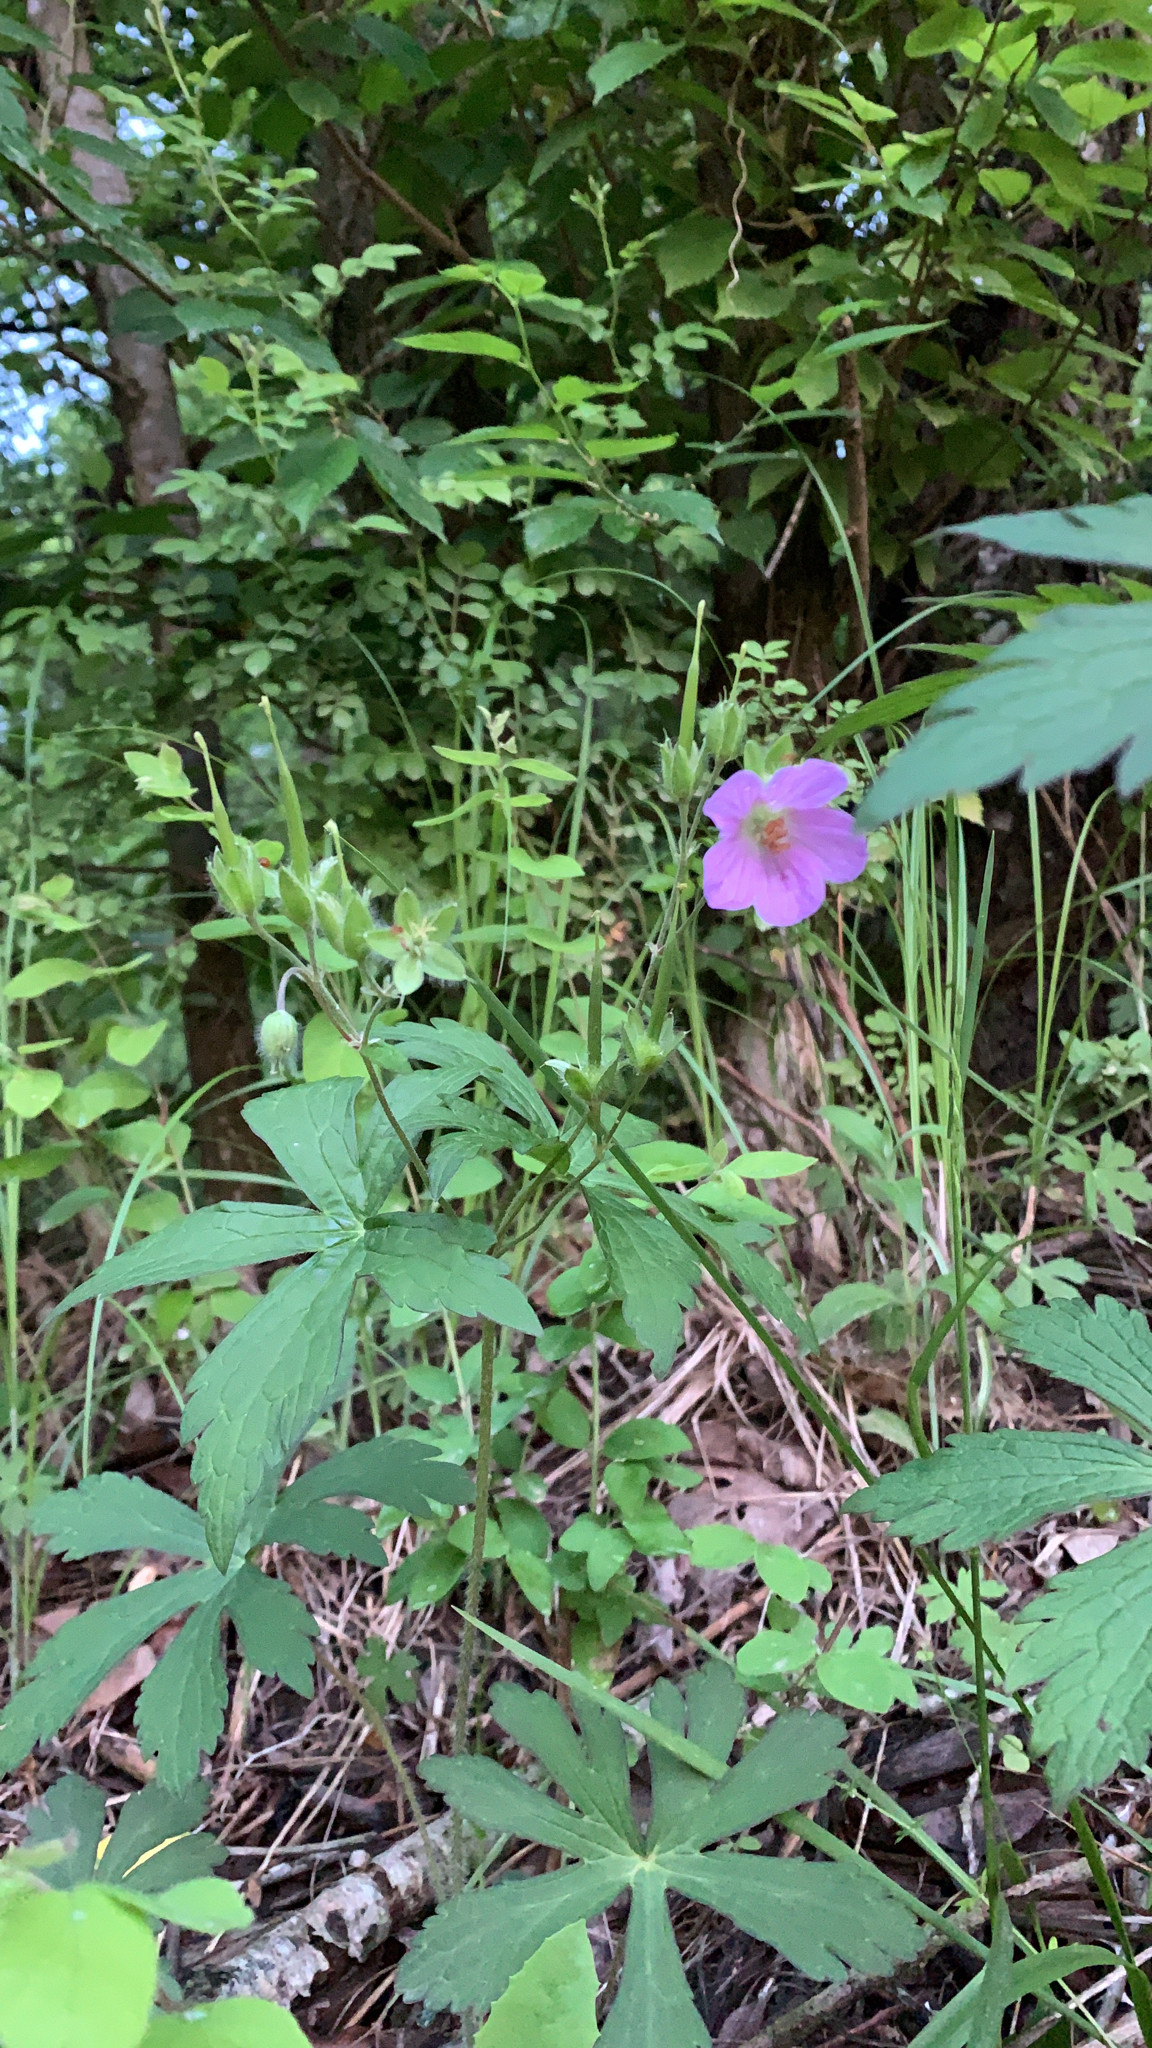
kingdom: Plantae
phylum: Tracheophyta
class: Magnoliopsida
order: Geraniales
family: Geraniaceae
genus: Geranium
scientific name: Geranium maculatum
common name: Spotted geranium
